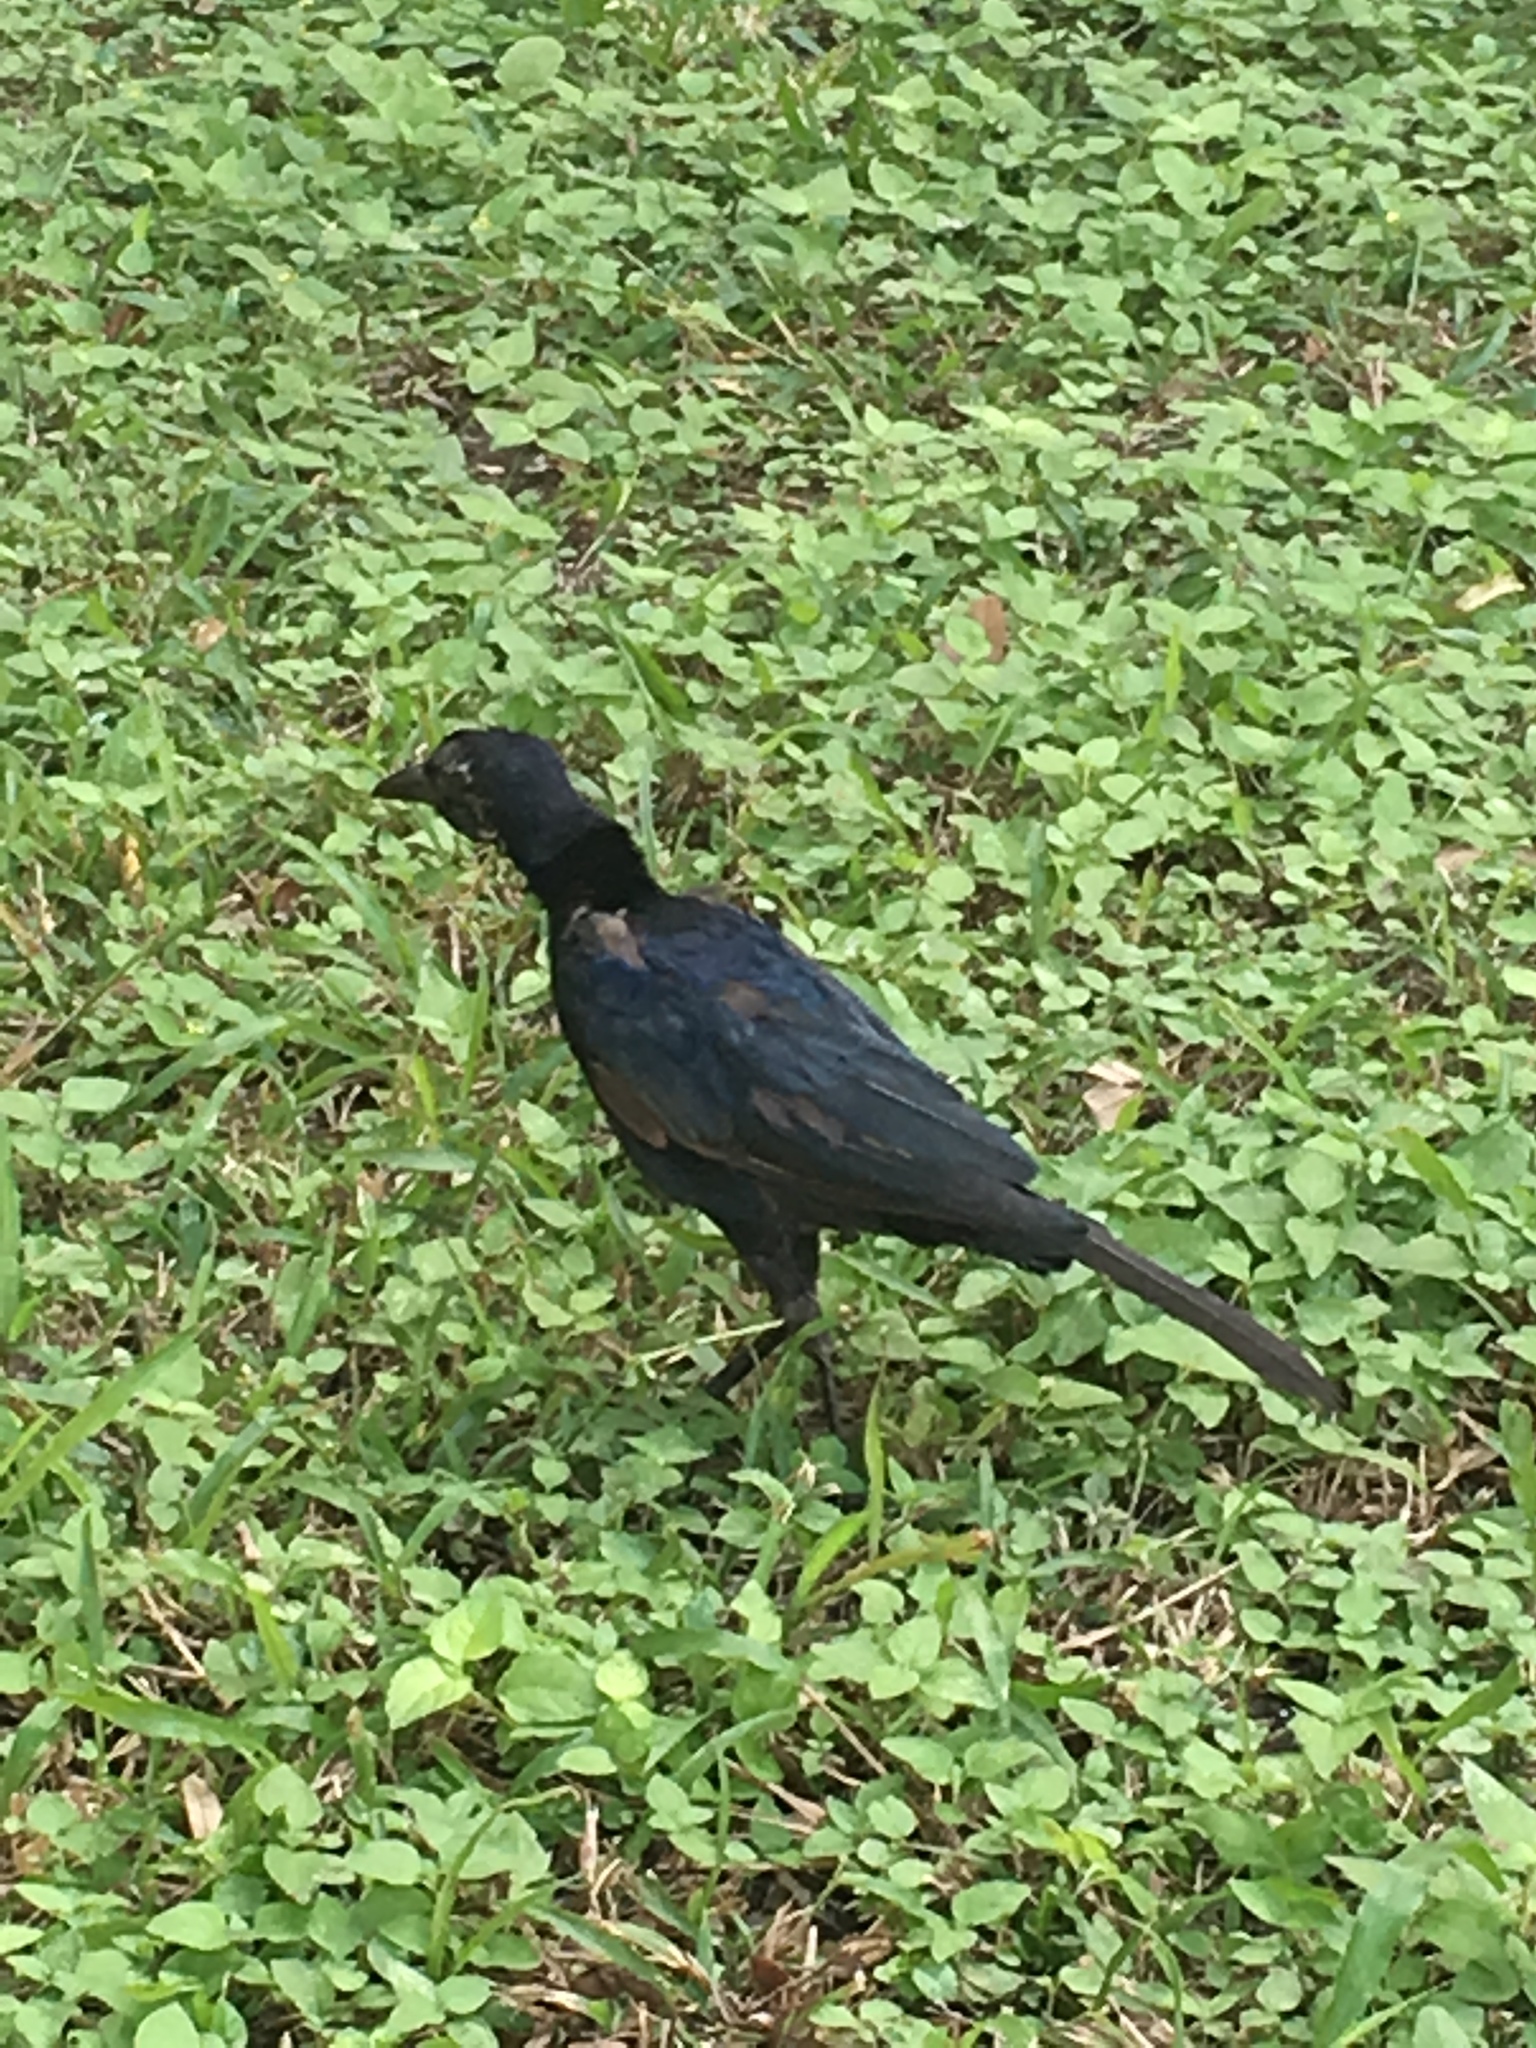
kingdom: Animalia
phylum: Chordata
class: Aves
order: Passeriformes
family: Icteridae
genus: Quiscalus
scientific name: Quiscalus mexicanus
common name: Great-tailed grackle
